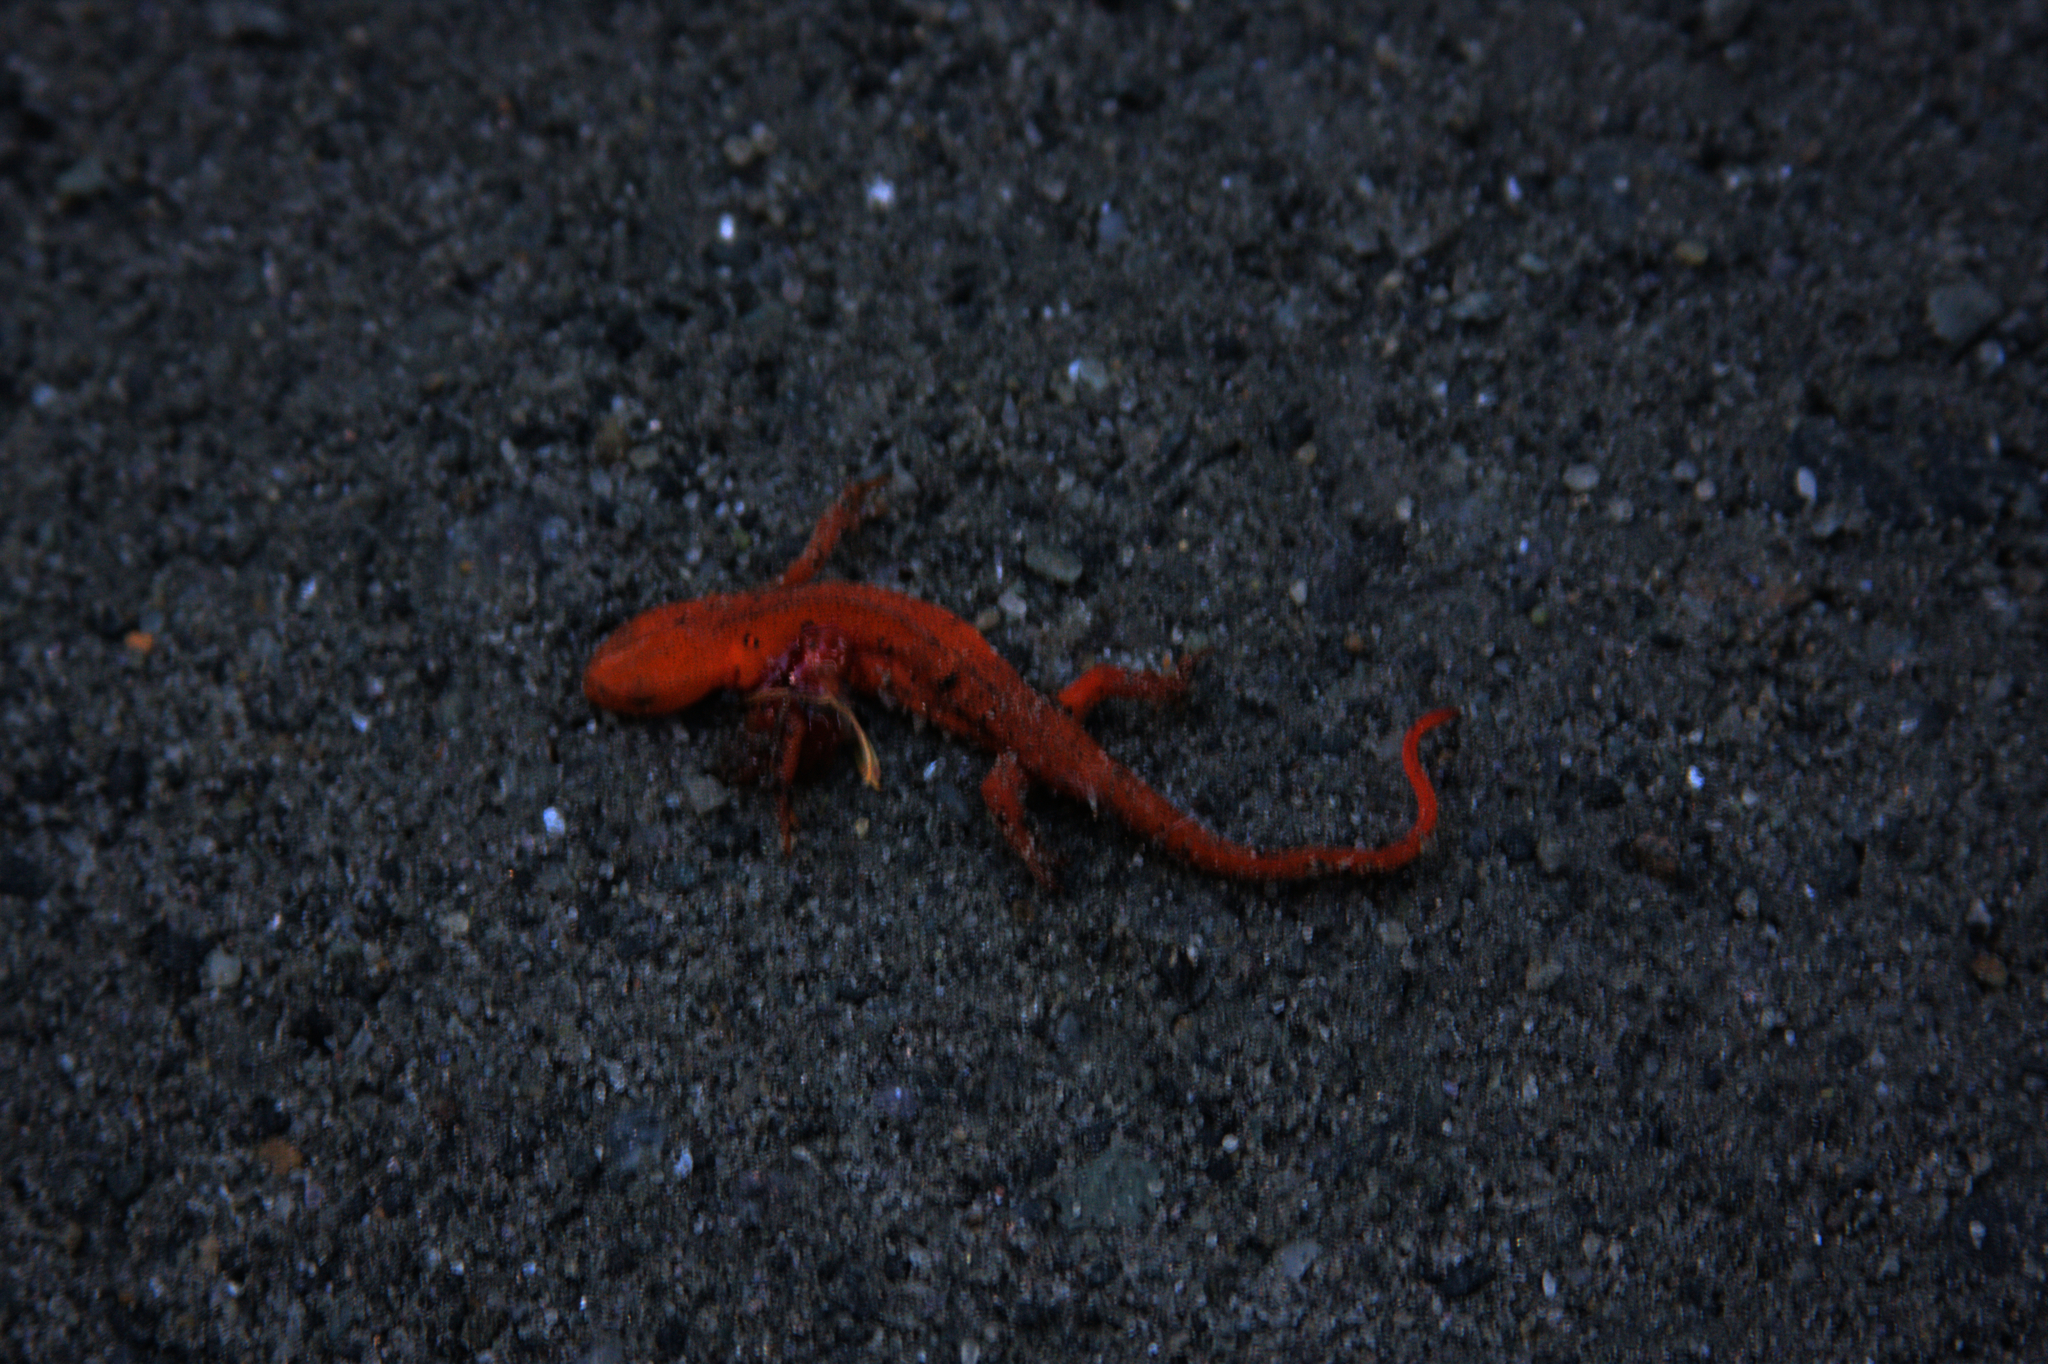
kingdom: Animalia
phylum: Chordata
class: Amphibia
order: Caudata
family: Salamandridae
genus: Notophthalmus
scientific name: Notophthalmus viridescens
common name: Eastern newt
